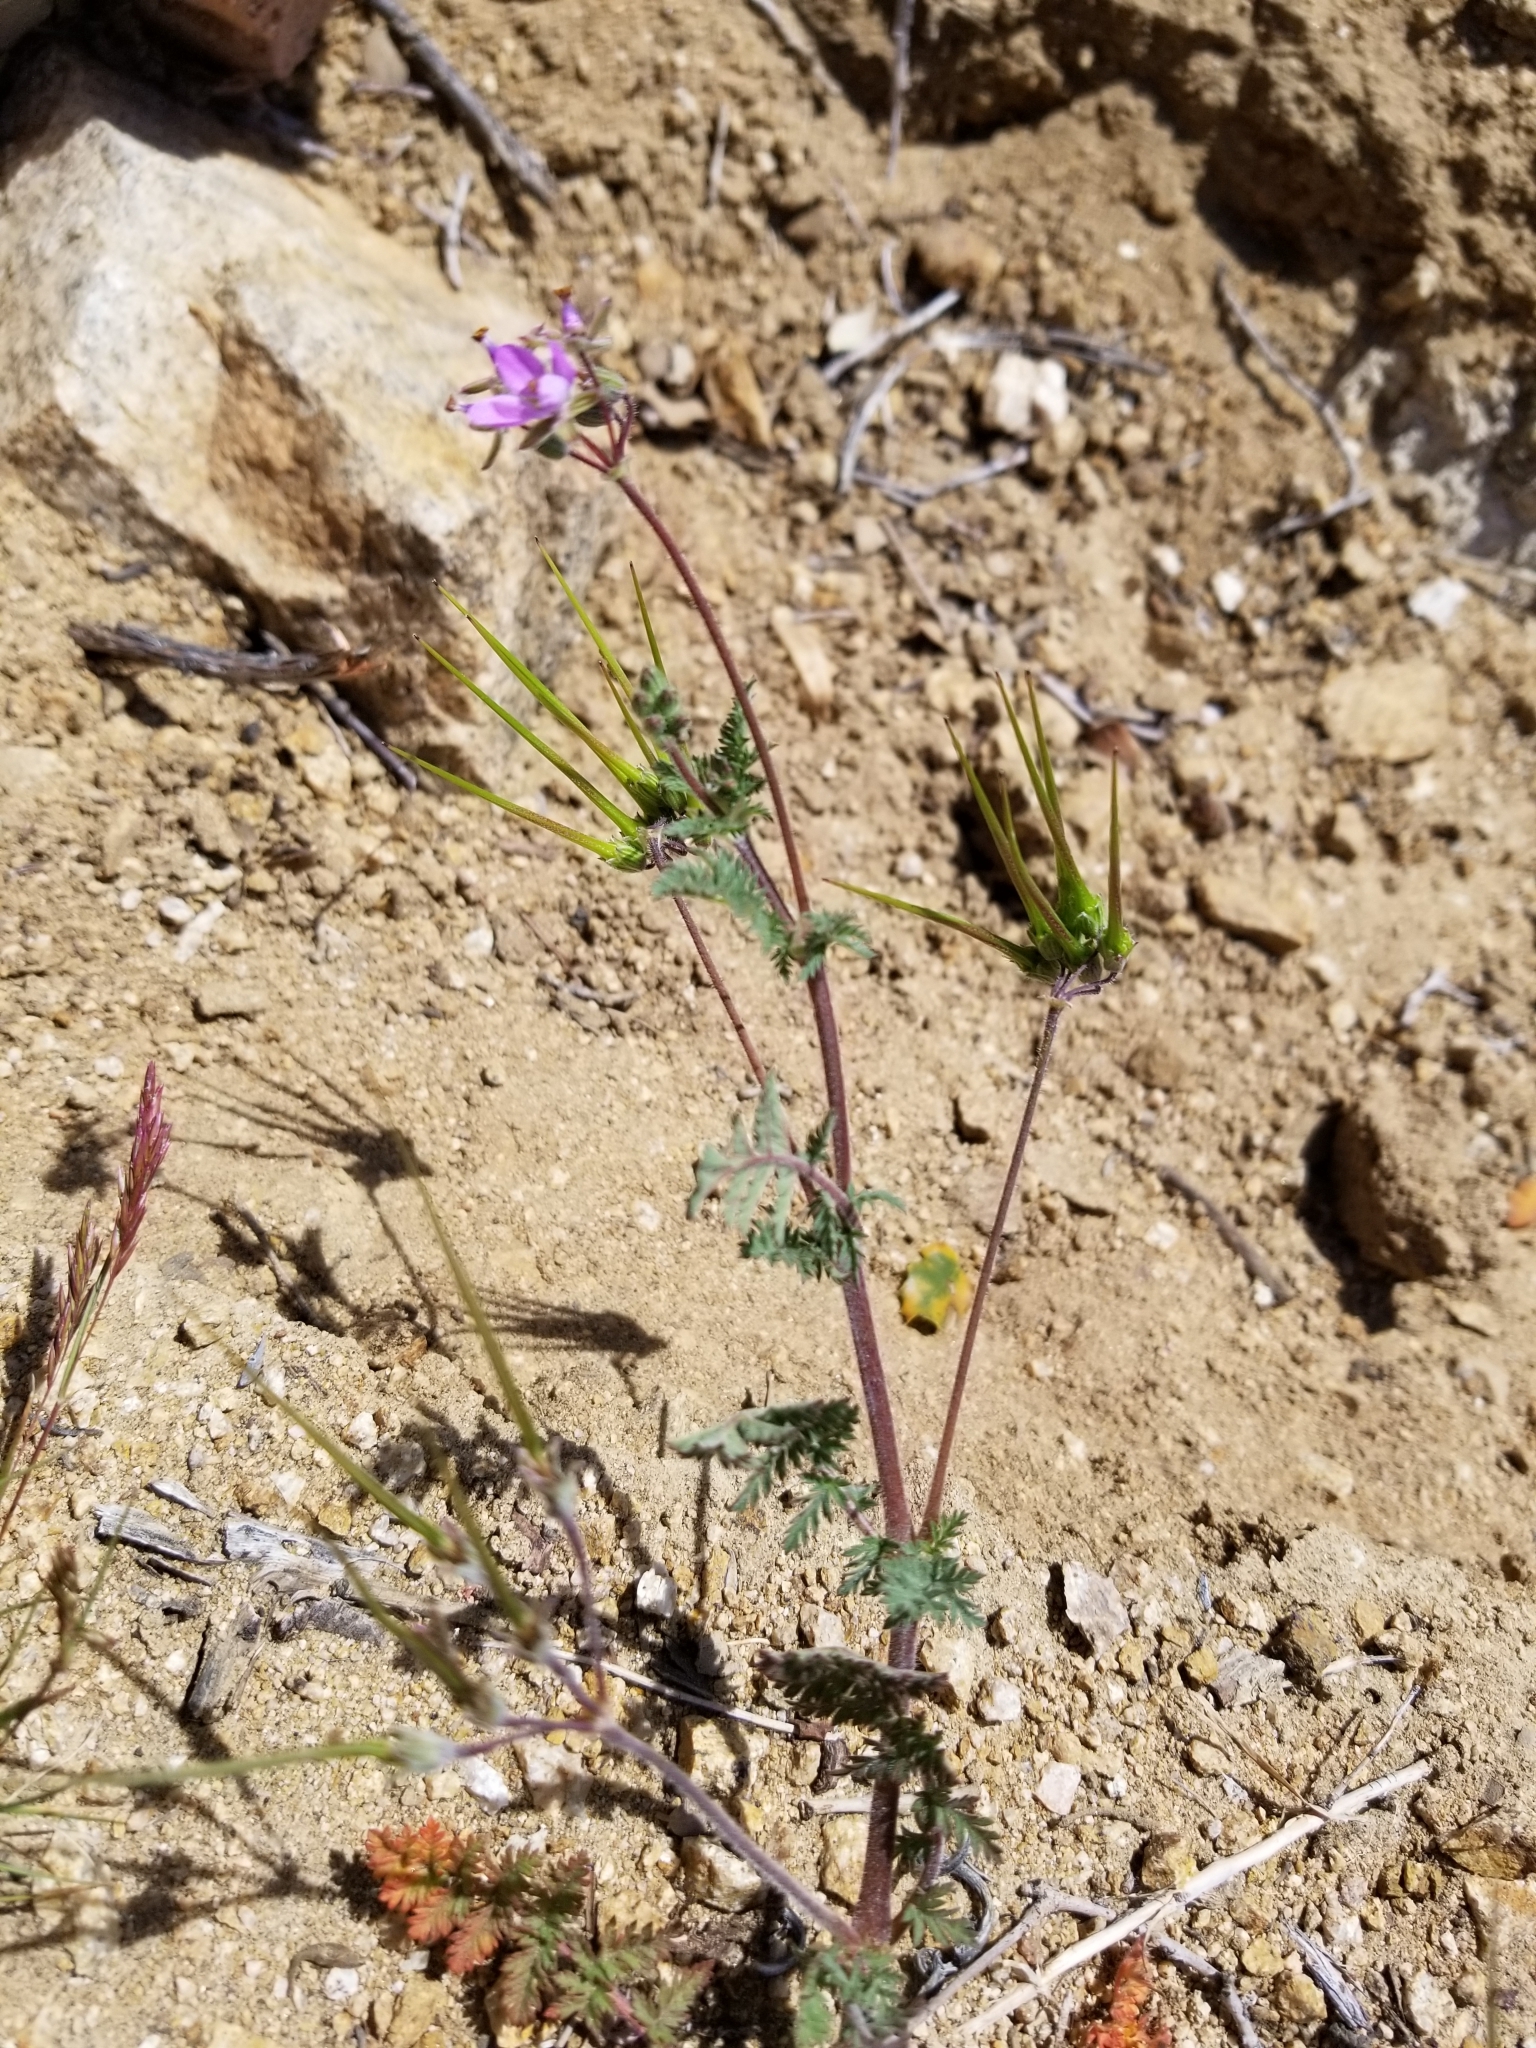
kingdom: Plantae
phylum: Tracheophyta
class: Magnoliopsida
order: Geraniales
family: Geraniaceae
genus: Erodium
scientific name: Erodium cicutarium
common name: Common stork's-bill
